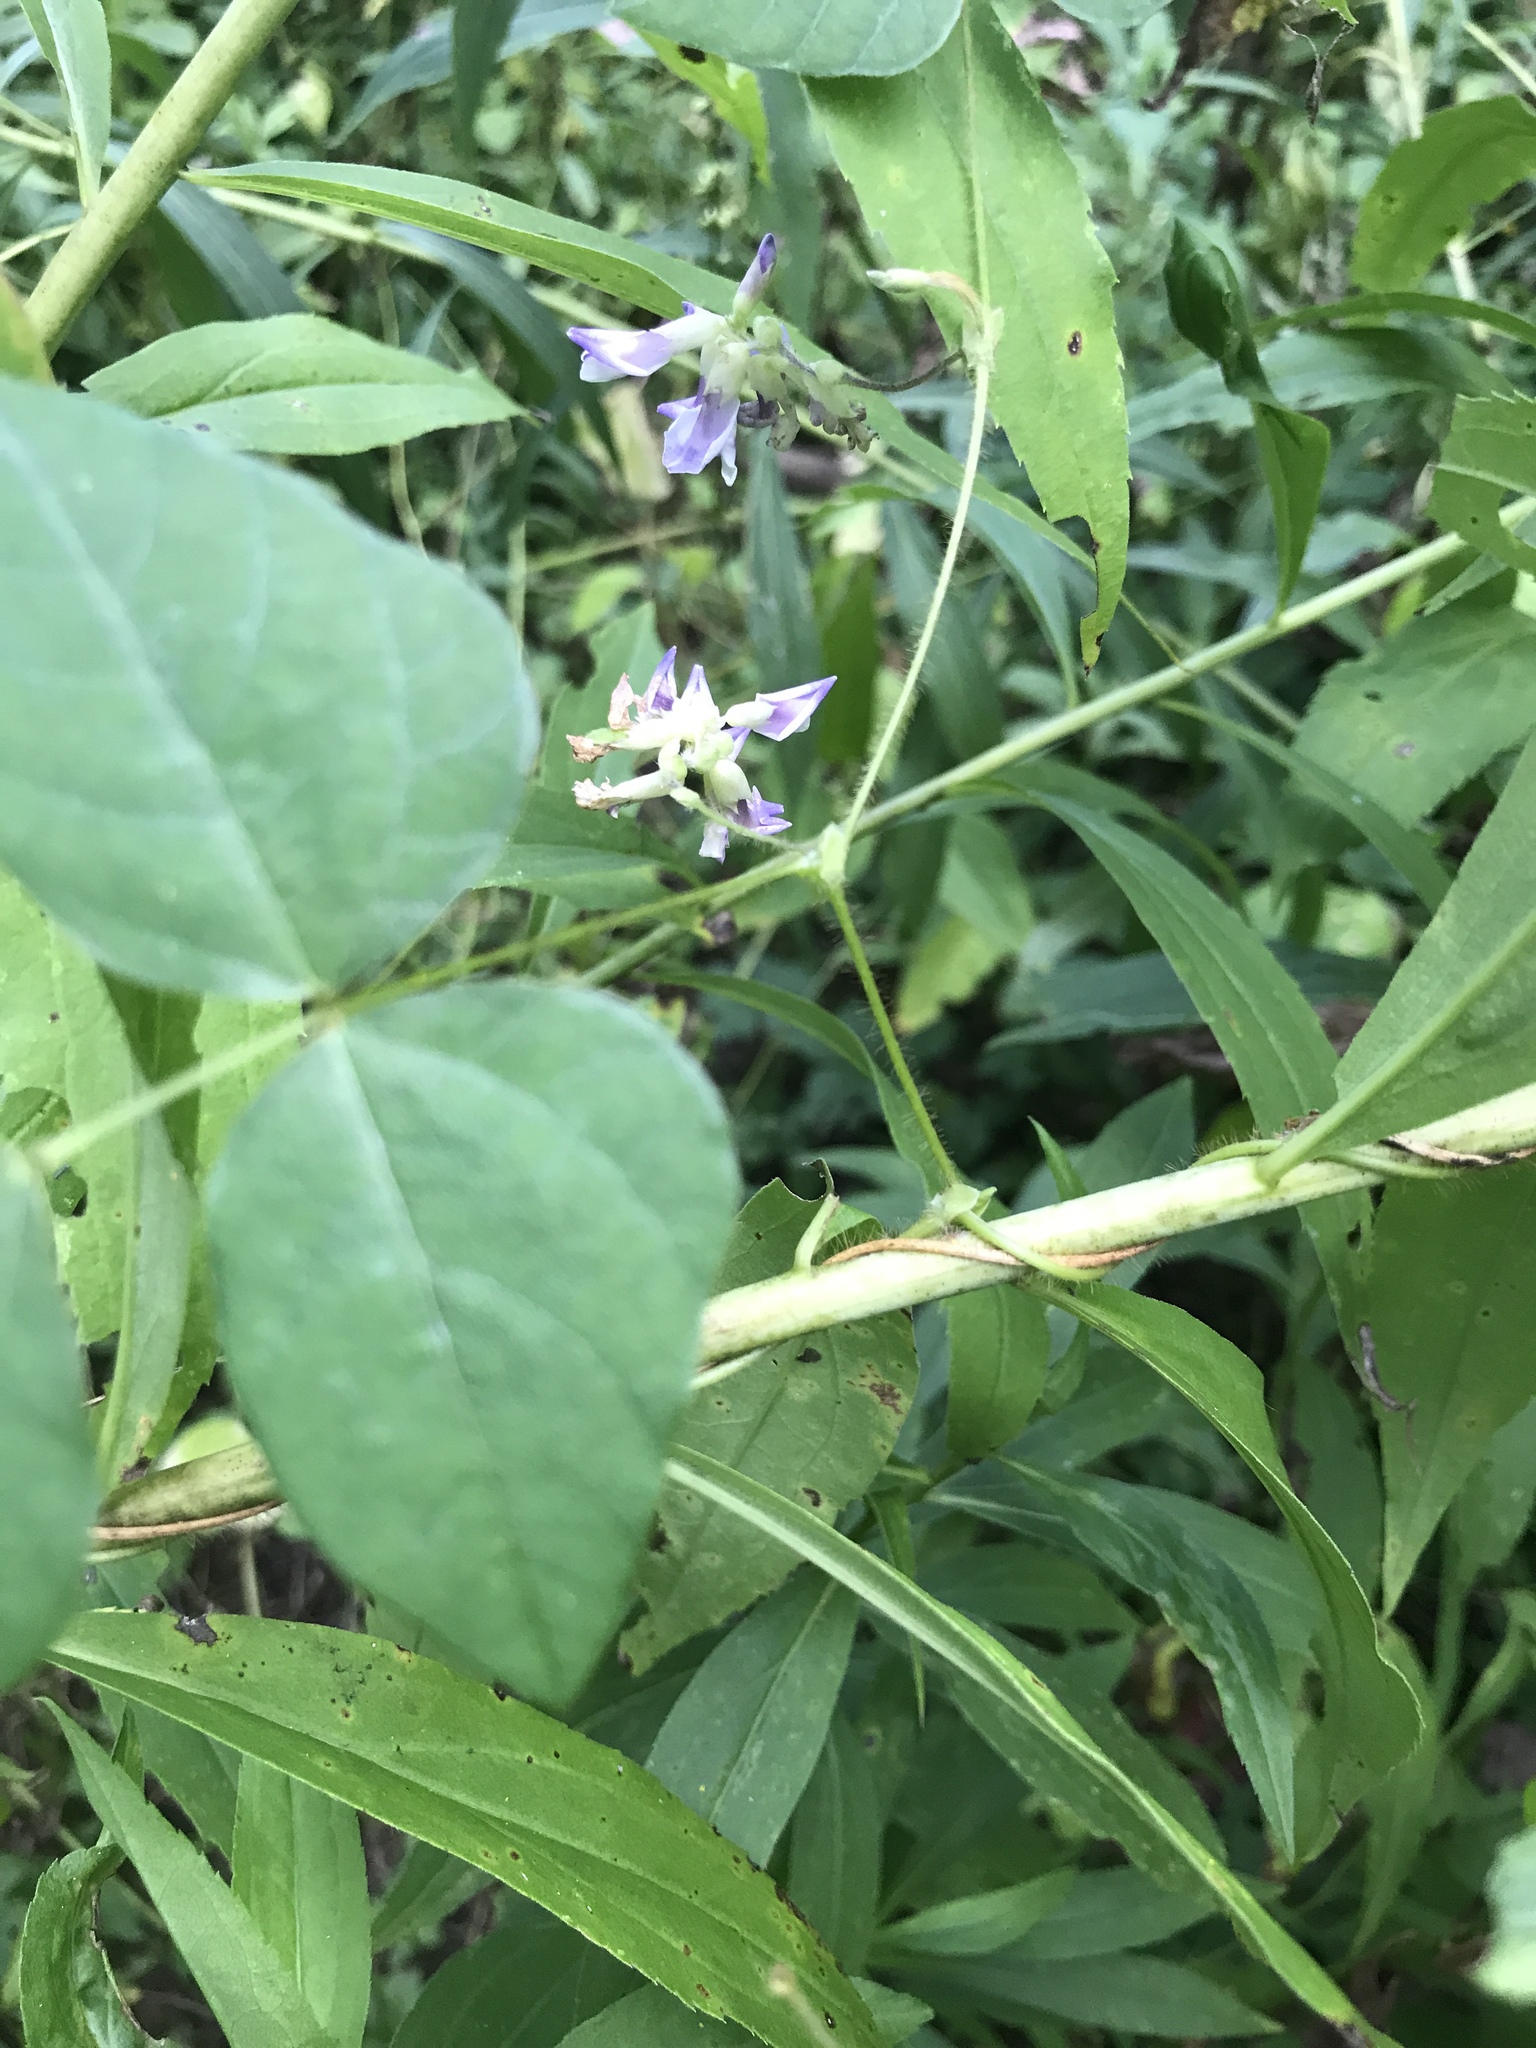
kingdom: Plantae
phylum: Tracheophyta
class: Magnoliopsida
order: Fabales
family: Fabaceae
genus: Amphicarpaea
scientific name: Amphicarpaea bracteata
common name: American hog peanut
